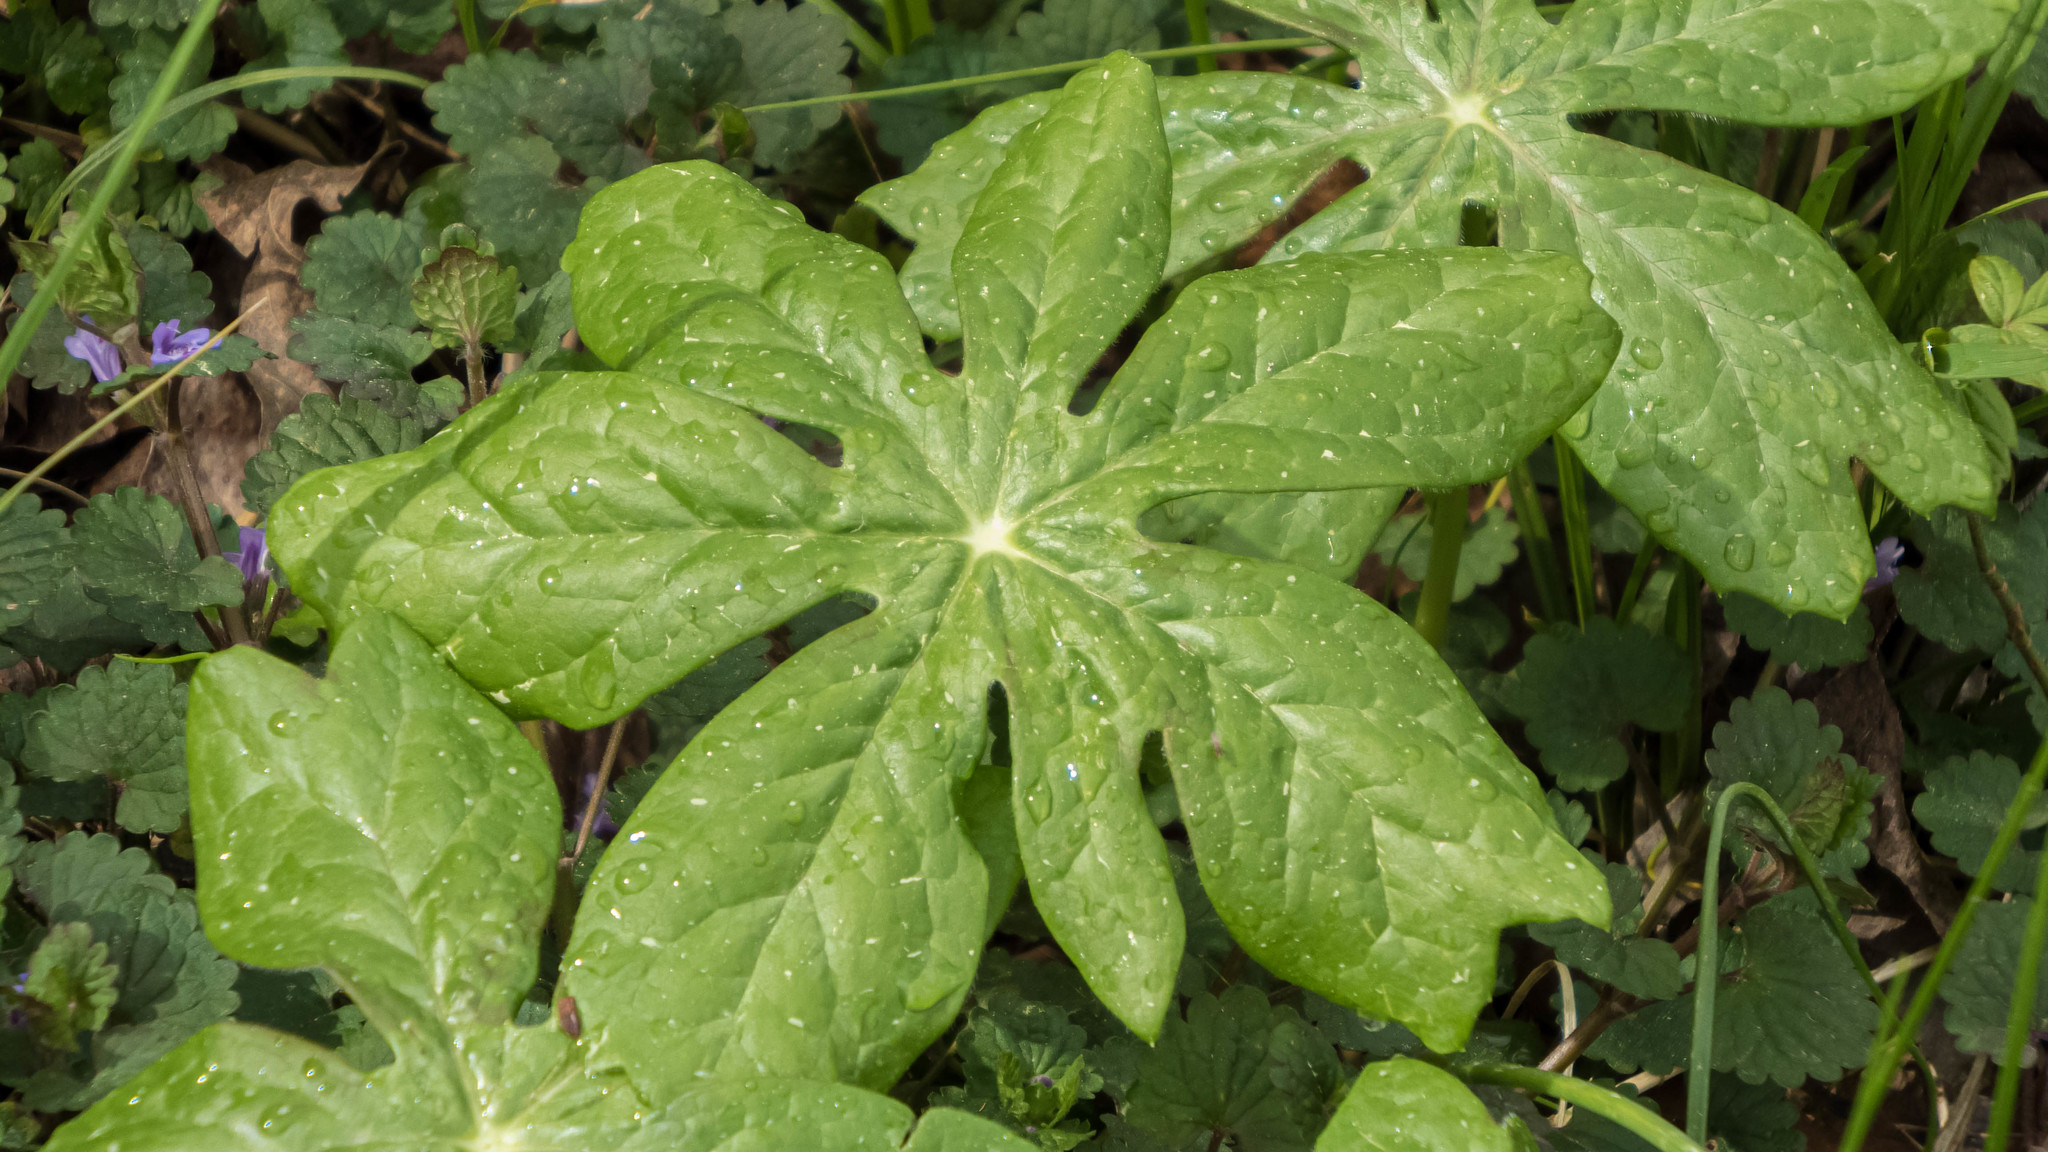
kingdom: Plantae
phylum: Tracheophyta
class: Magnoliopsida
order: Ranunculales
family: Berberidaceae
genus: Podophyllum
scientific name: Podophyllum peltatum
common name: Wild mandrake
